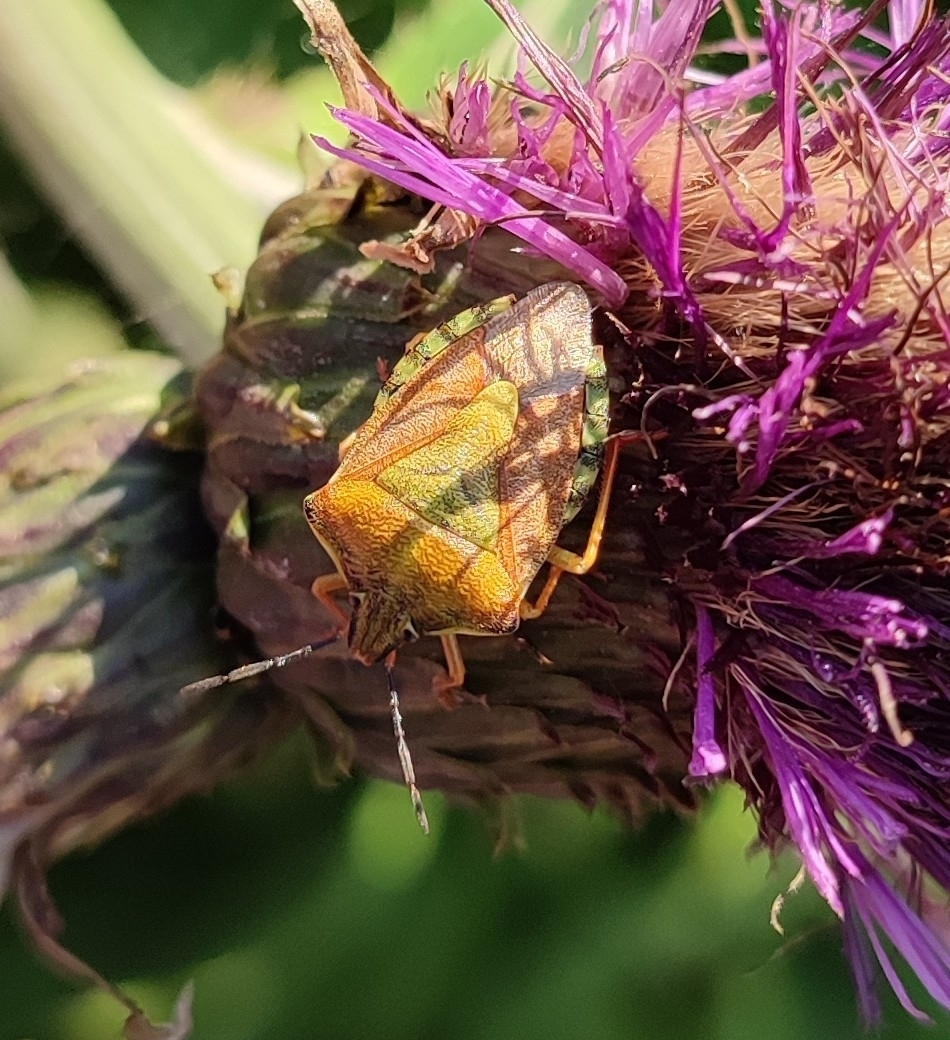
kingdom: Animalia
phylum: Arthropoda
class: Insecta
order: Hemiptera
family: Pentatomidae
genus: Carpocoris
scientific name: Carpocoris purpureipennis
